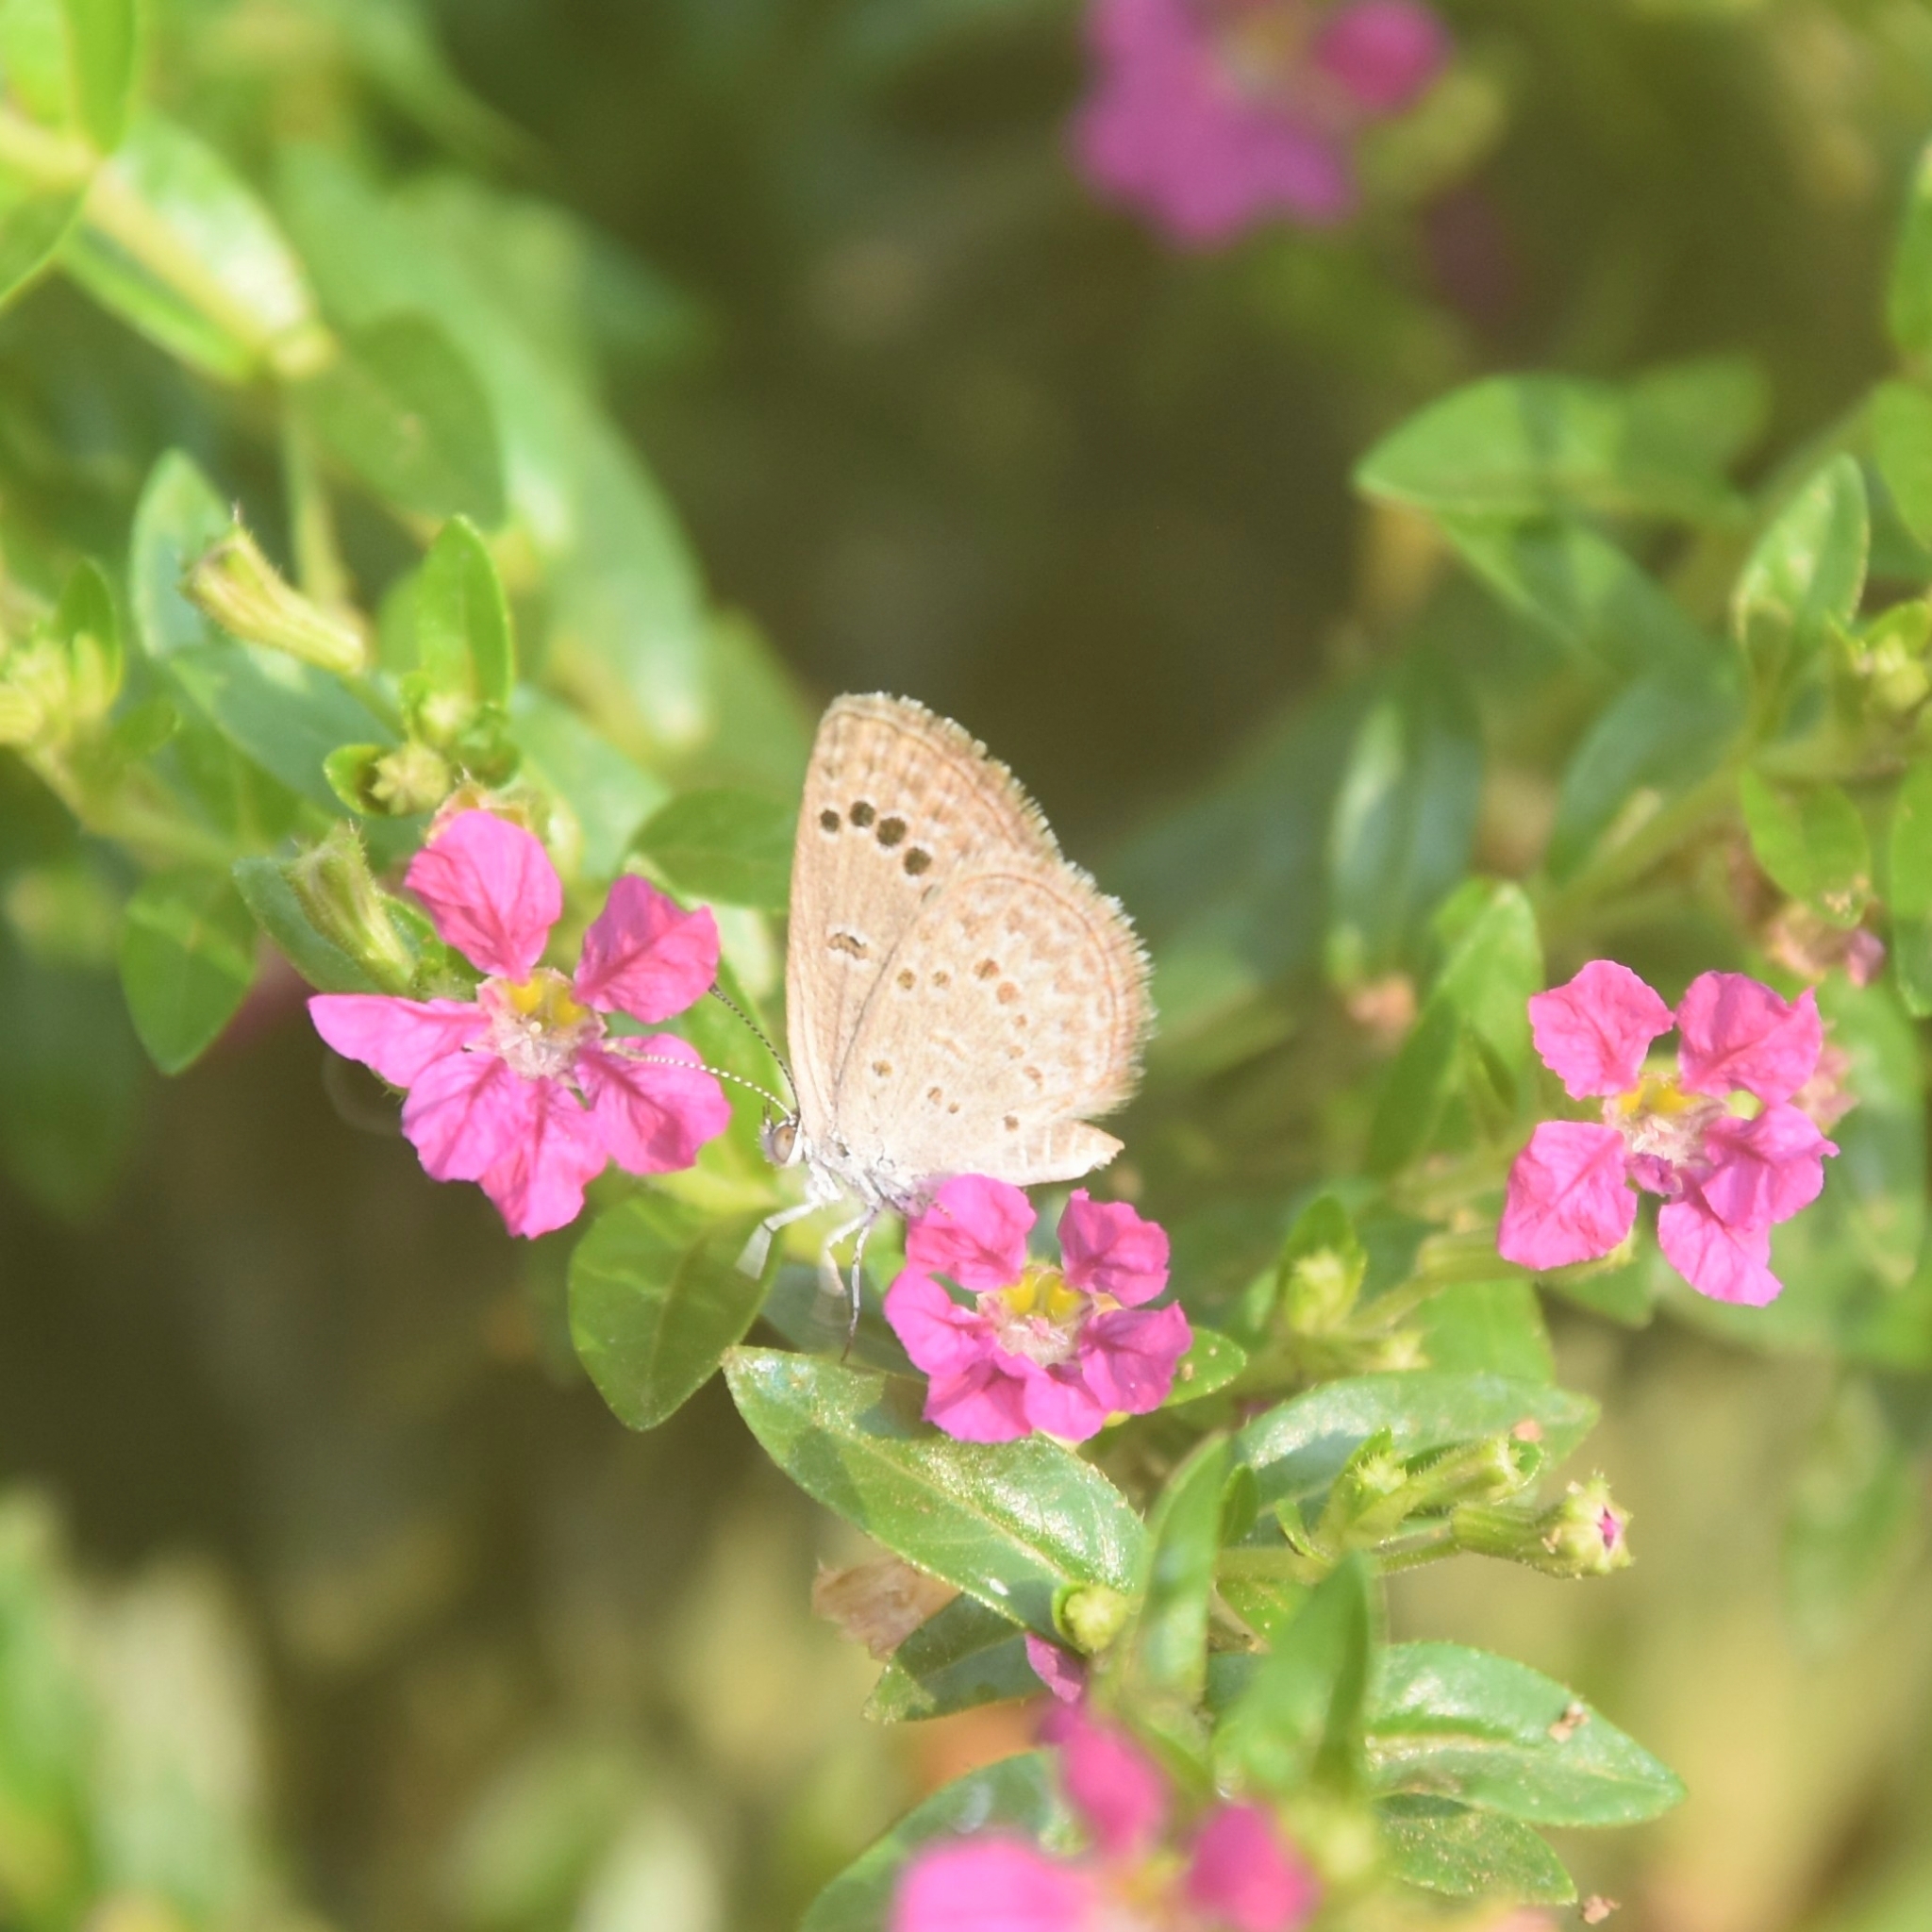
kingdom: Animalia
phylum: Arthropoda
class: Insecta
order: Lepidoptera
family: Lycaenidae
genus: Zizina
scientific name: Zizina otis
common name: Lesser grass blue
